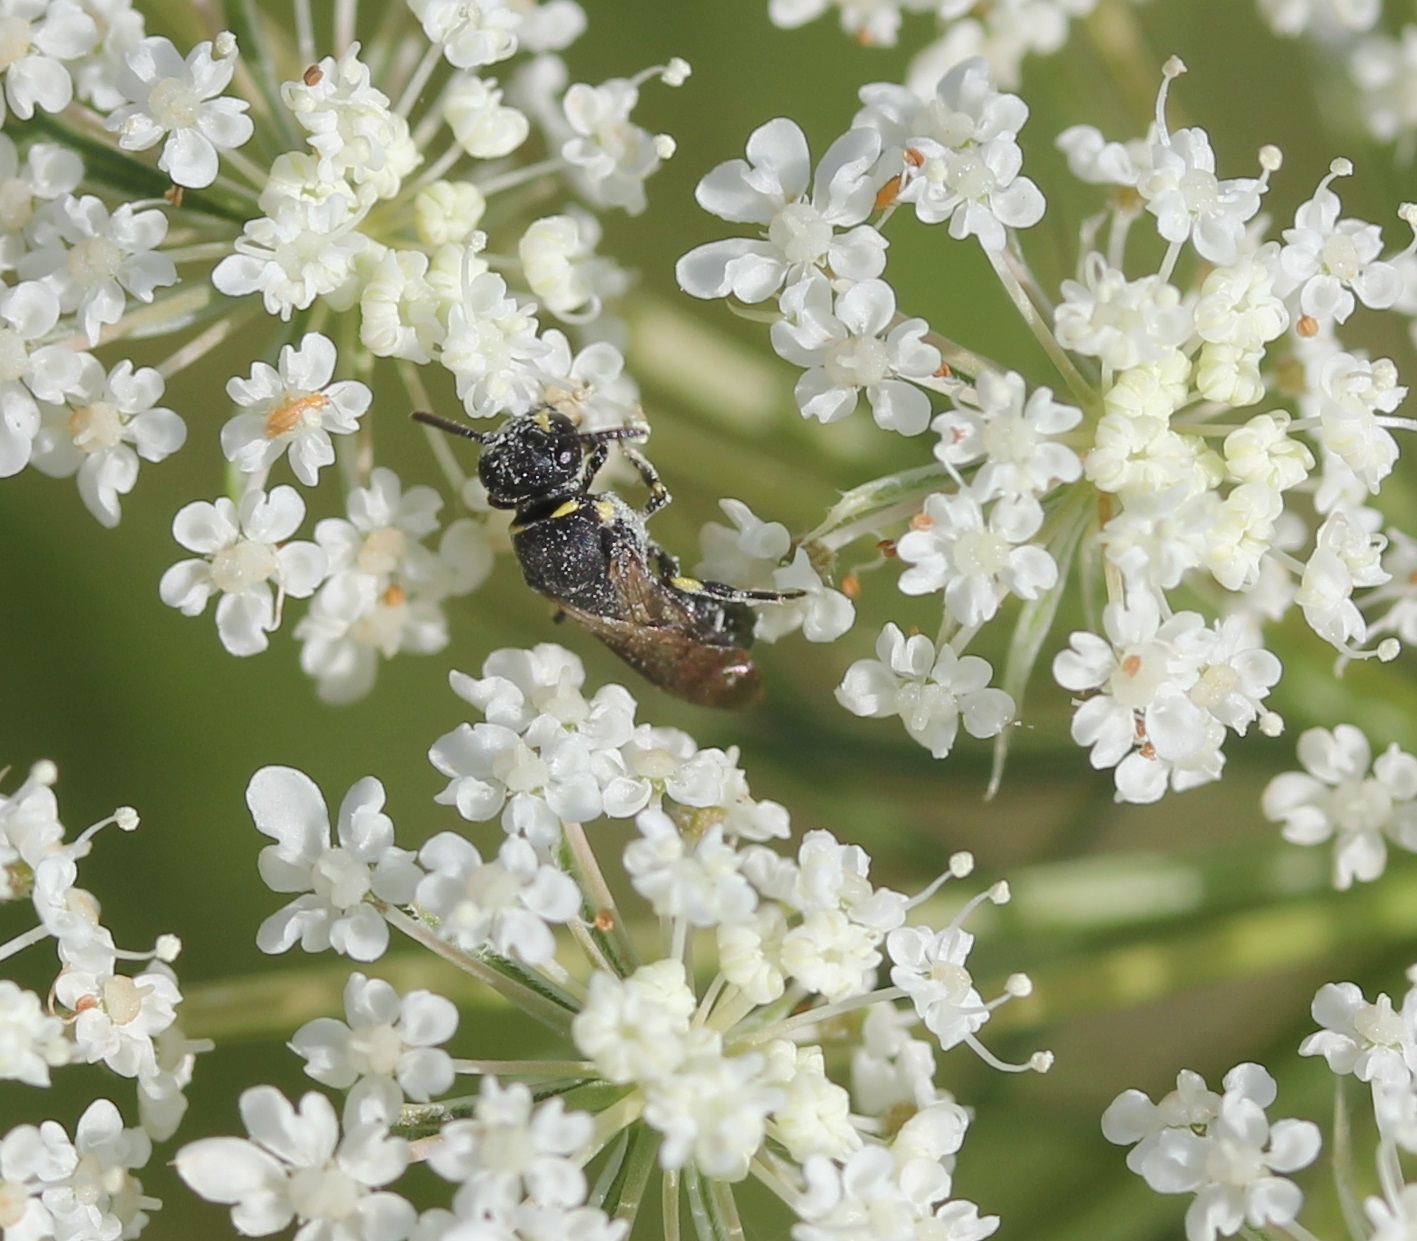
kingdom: Animalia
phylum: Arthropoda
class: Insecta
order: Hymenoptera
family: Colletidae
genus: Hylaeus
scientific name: Hylaeus modestus
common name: Yellow-faced bee
